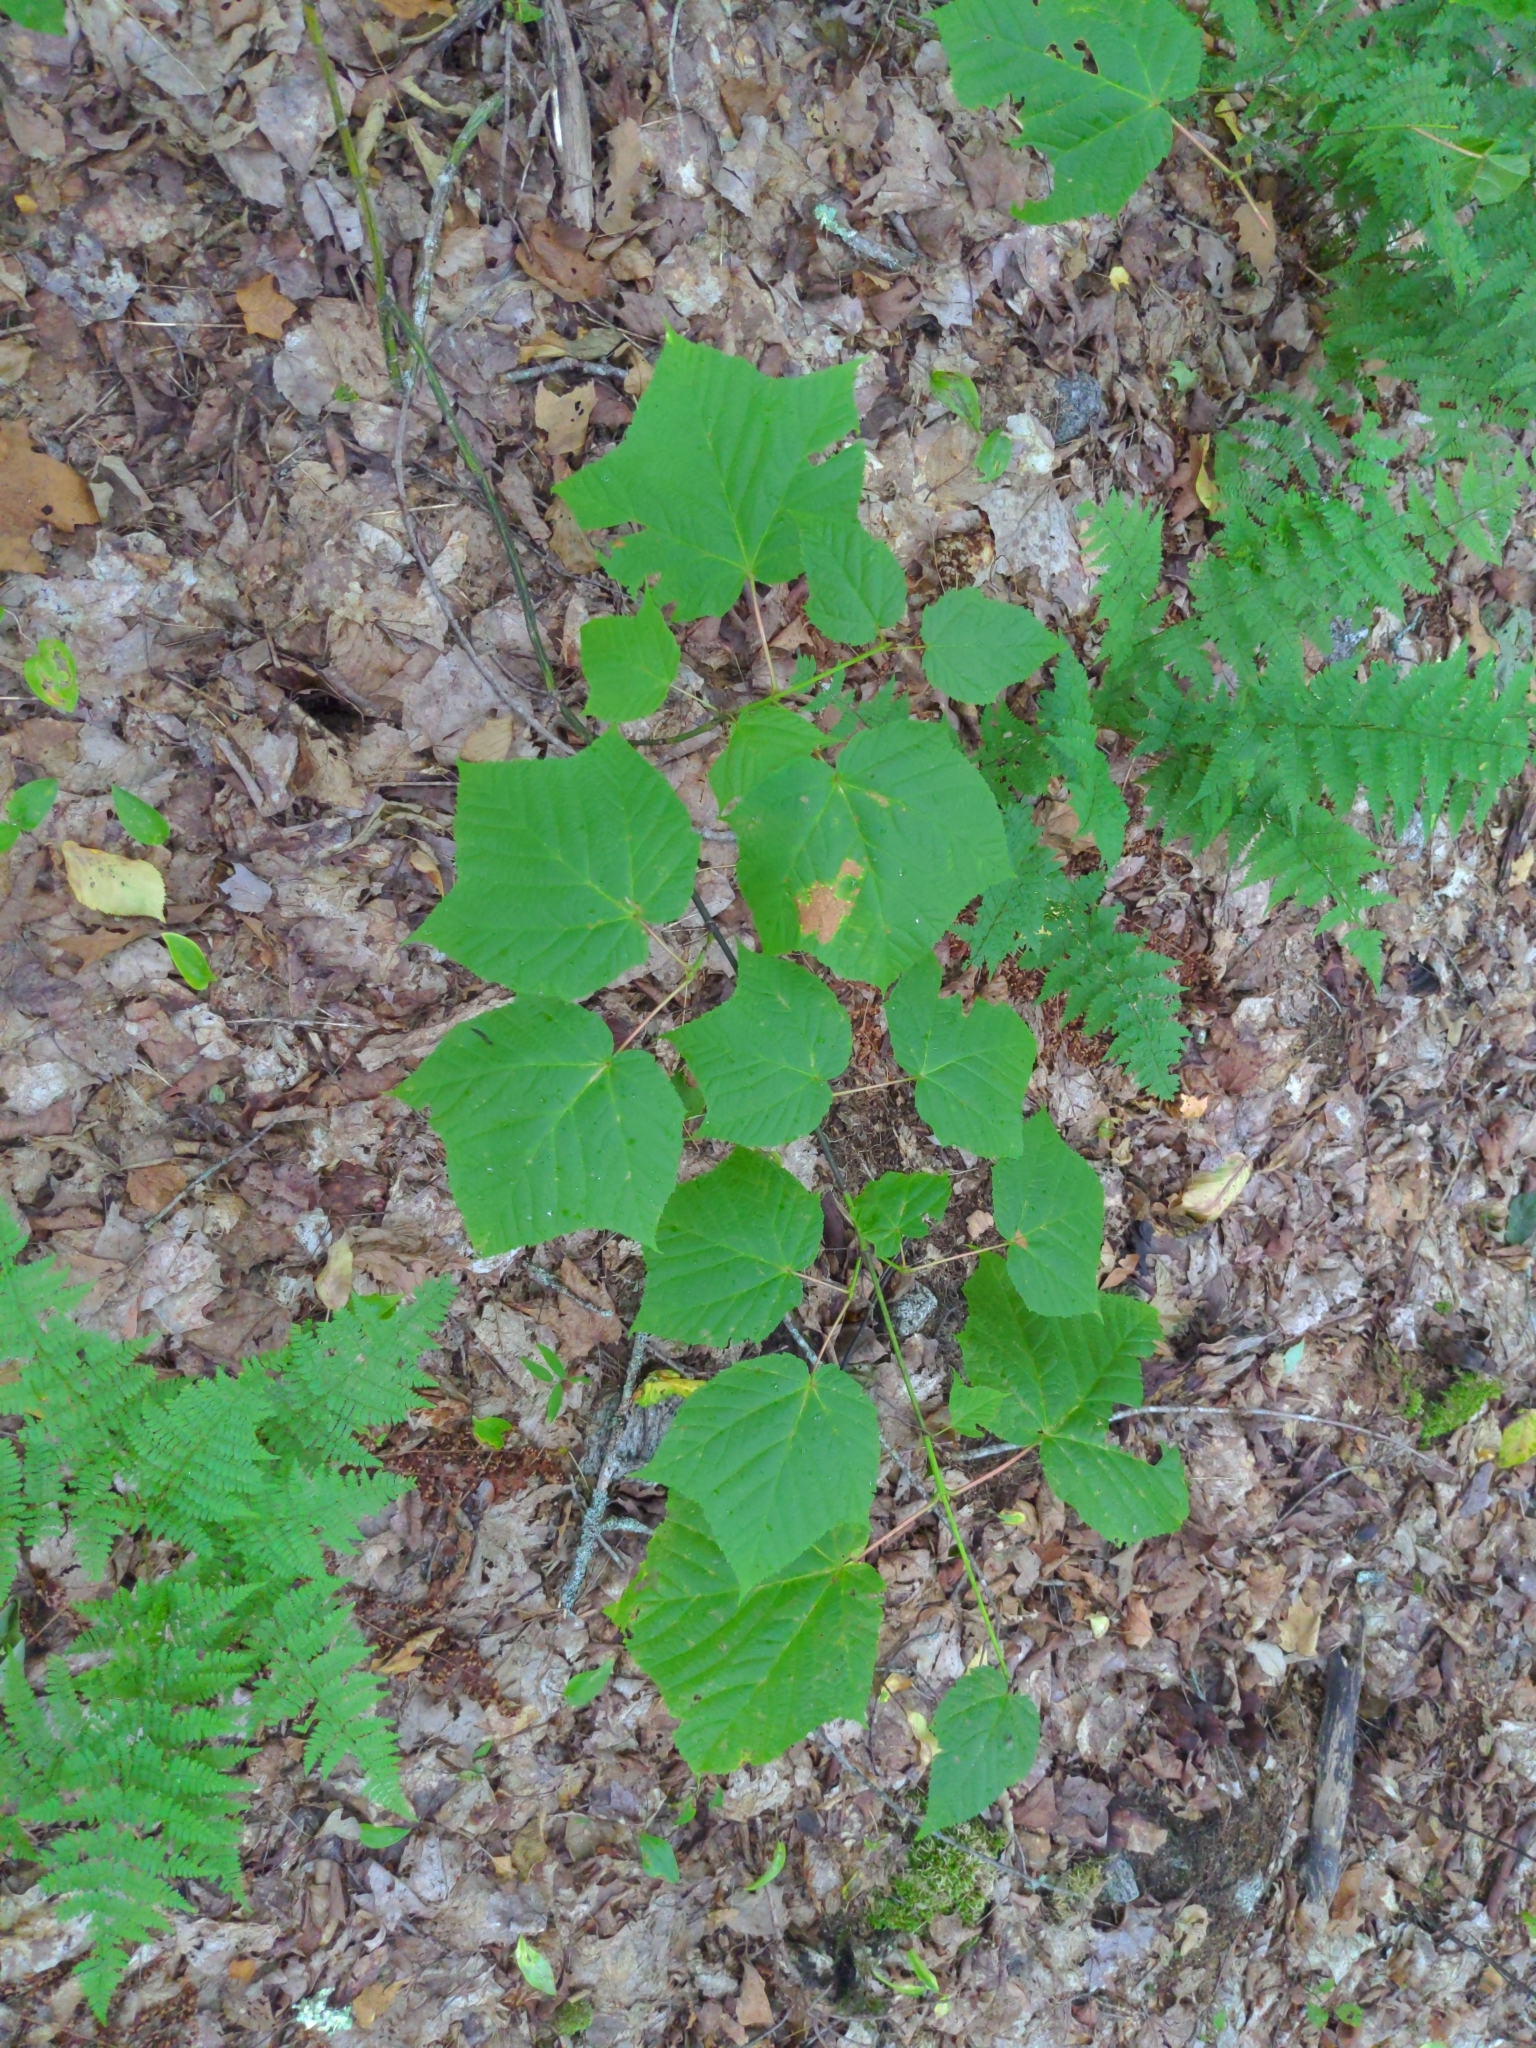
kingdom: Plantae
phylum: Tracheophyta
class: Magnoliopsida
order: Sapindales
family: Sapindaceae
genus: Acer
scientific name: Acer pensylvanicum
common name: Moosewood
